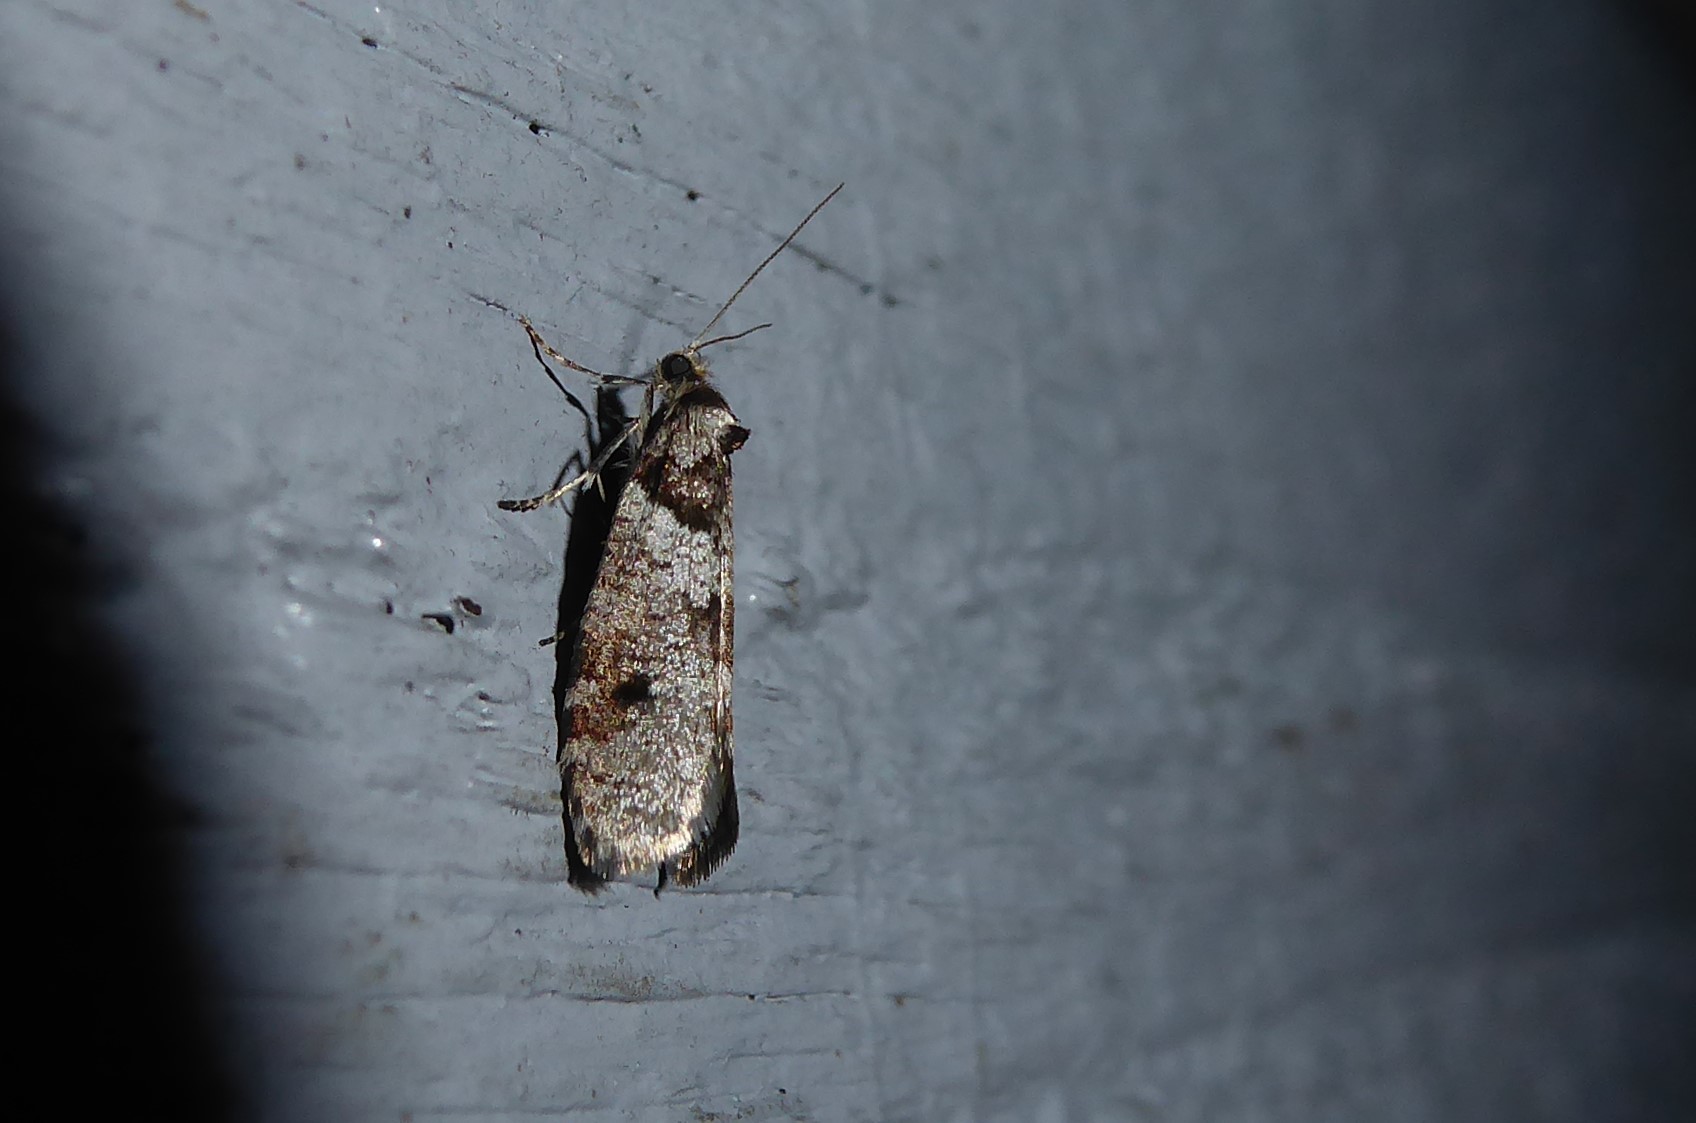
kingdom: Animalia
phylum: Arthropoda
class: Insecta
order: Lepidoptera
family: Psychidae
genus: Lepidoscia
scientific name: Lepidoscia heliochares
